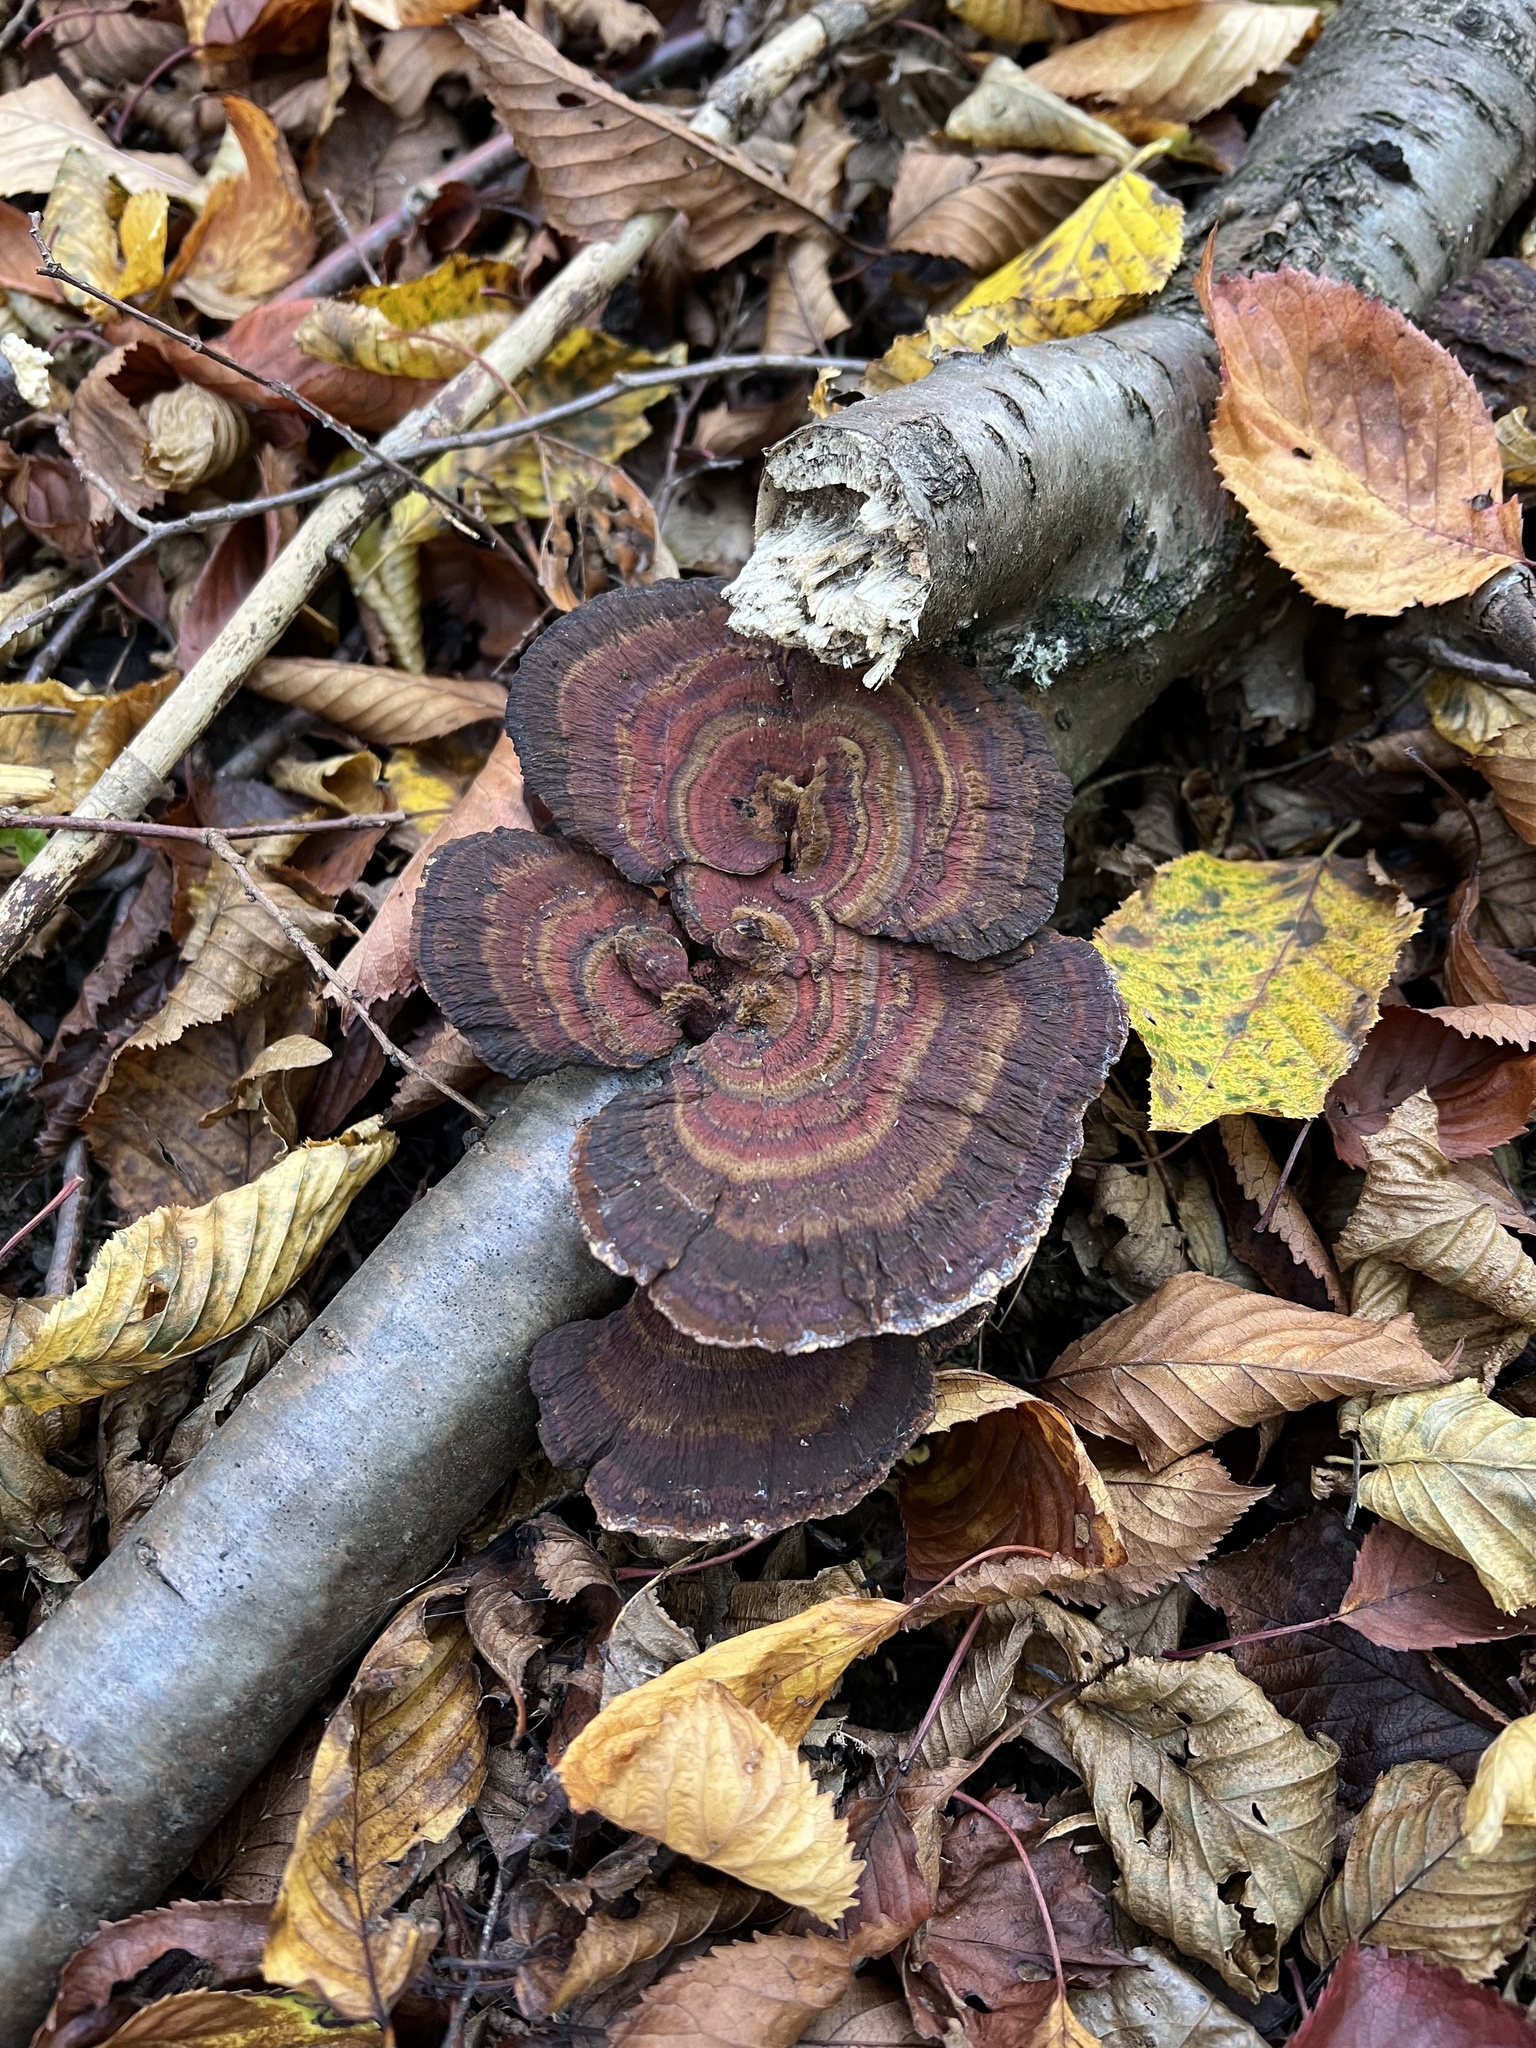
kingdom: Fungi
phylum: Basidiomycota
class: Agaricomycetes
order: Polyporales
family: Polyporaceae
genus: Daedaleopsis
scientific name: Daedaleopsis tricolor
